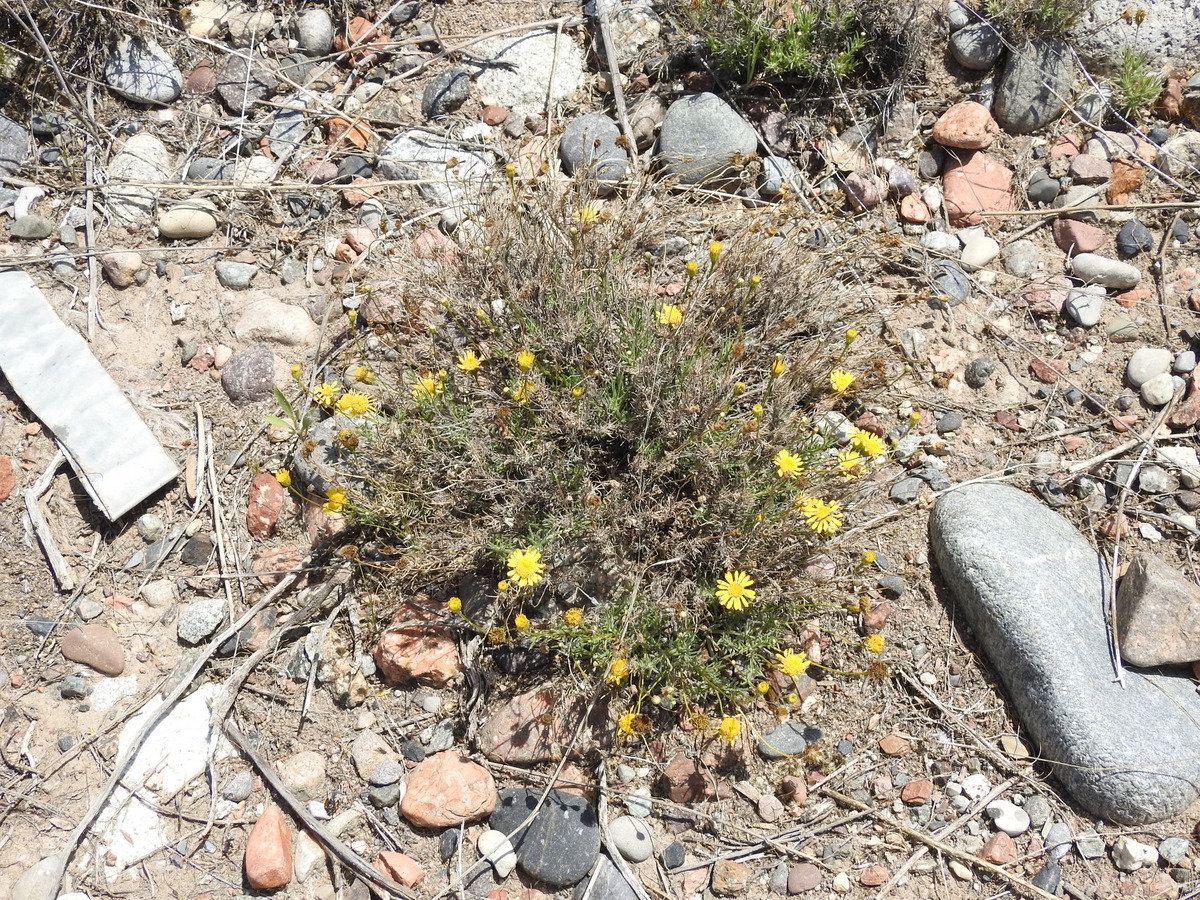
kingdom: Plantae
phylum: Tracheophyta
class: Magnoliopsida
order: Asterales
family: Asteraceae
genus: Thymophylla
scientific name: Thymophylla pentachaeta
